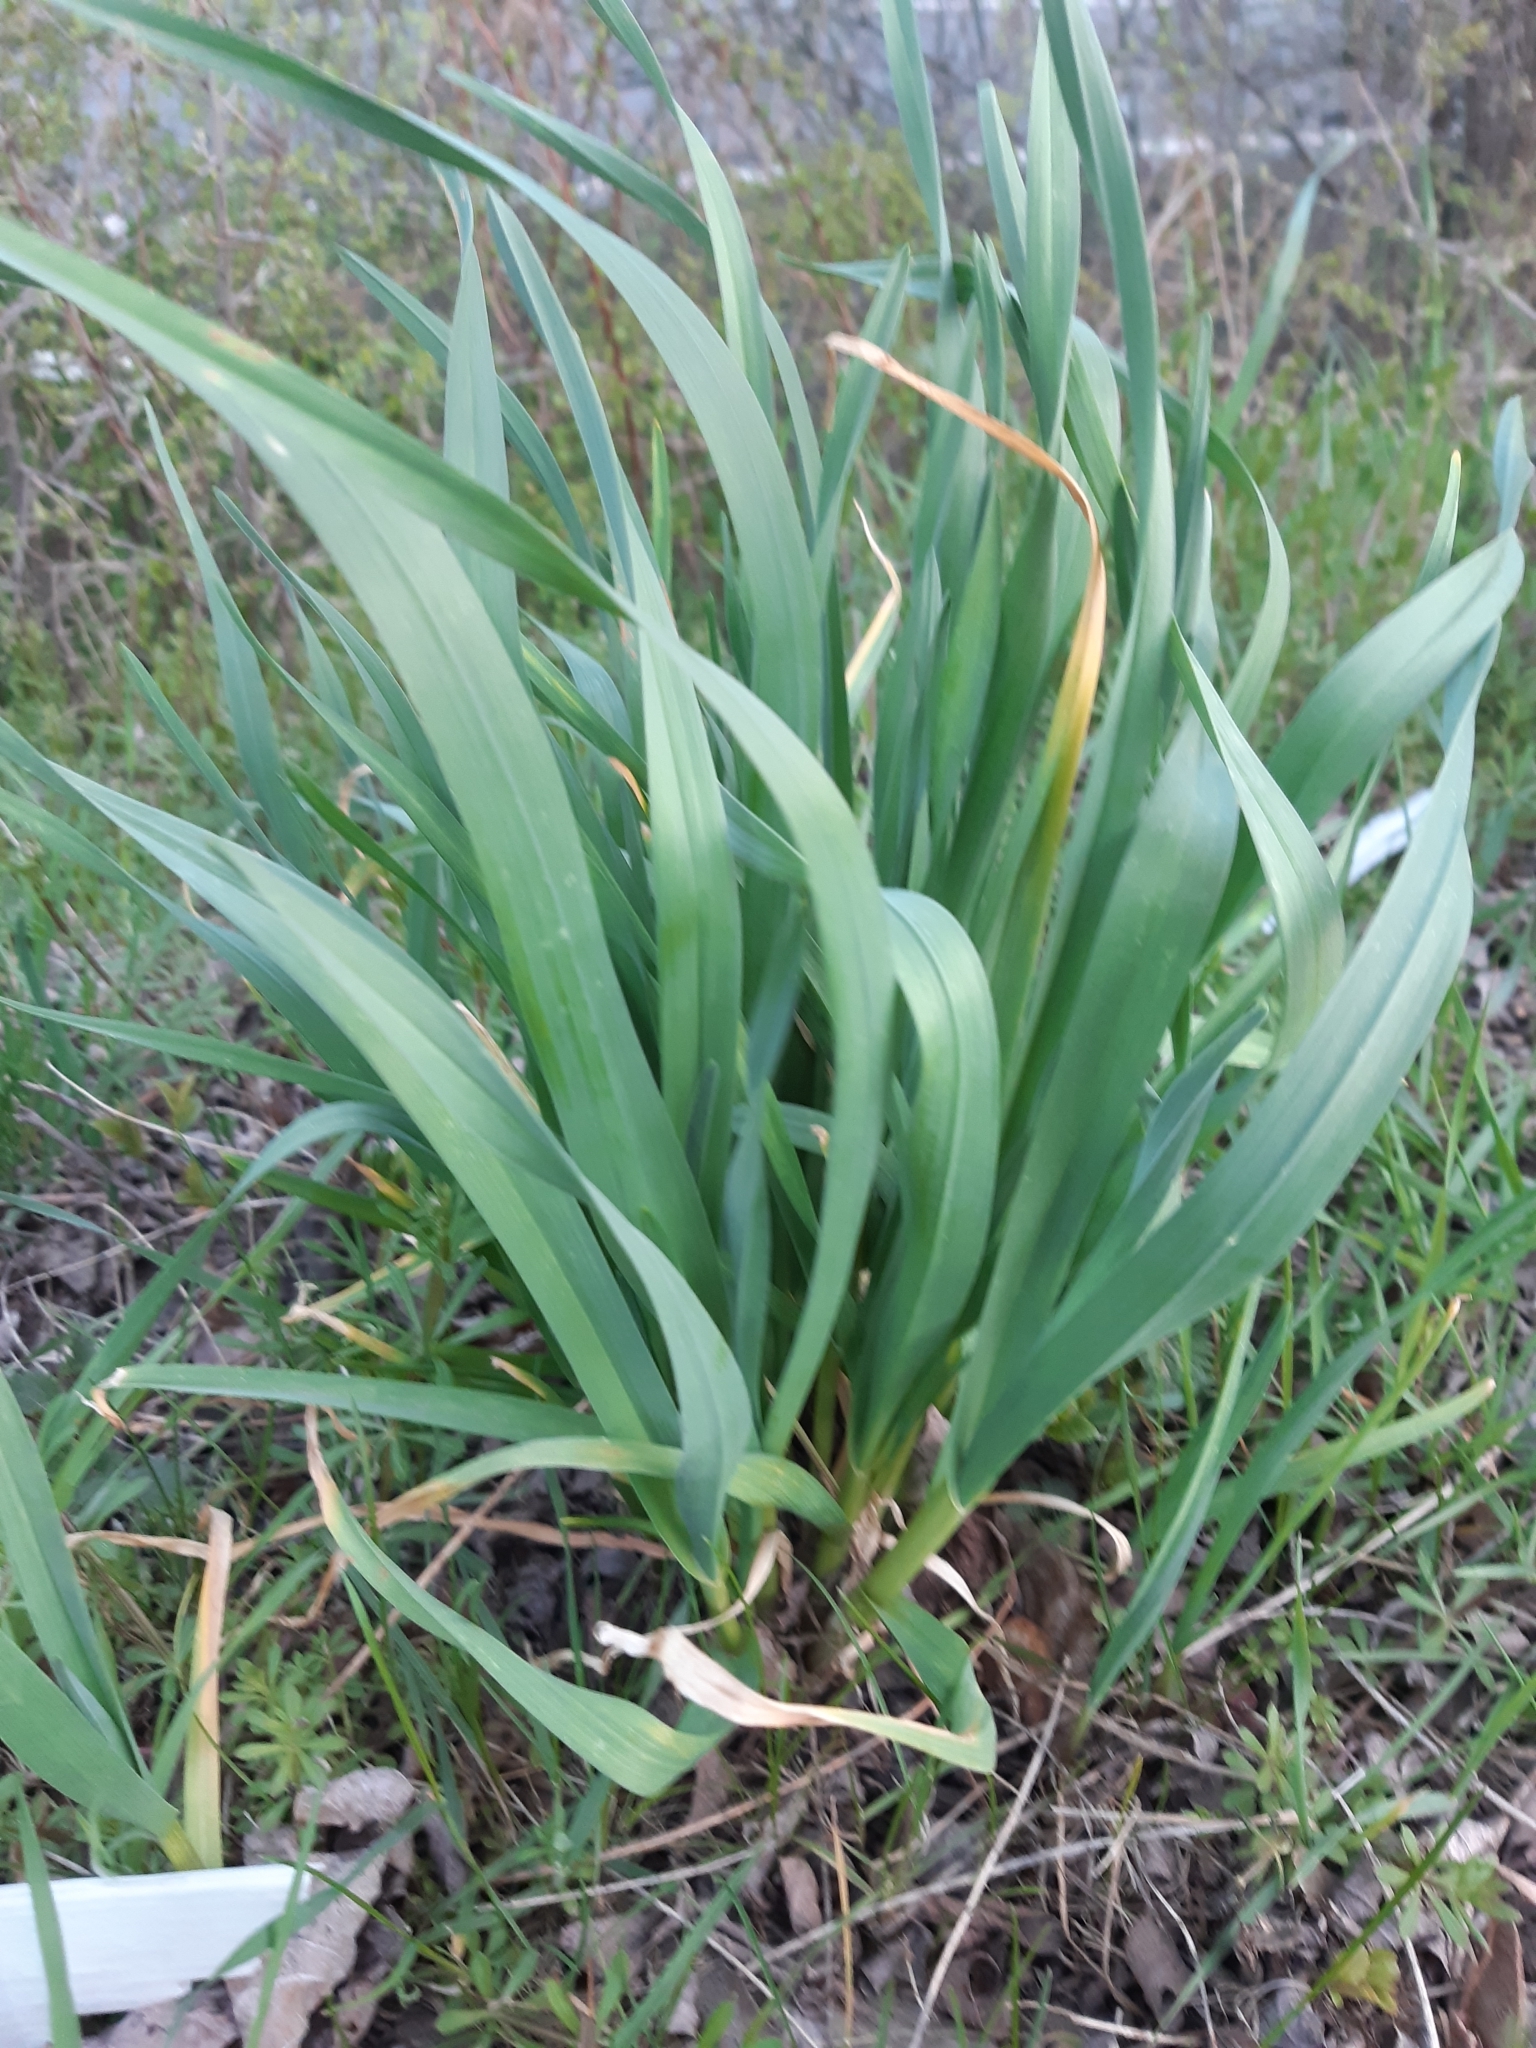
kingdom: Plantae
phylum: Tracheophyta
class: Liliopsida
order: Asparagales
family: Amaryllidaceae
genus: Allium
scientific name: Allium sativum
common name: Garlic
